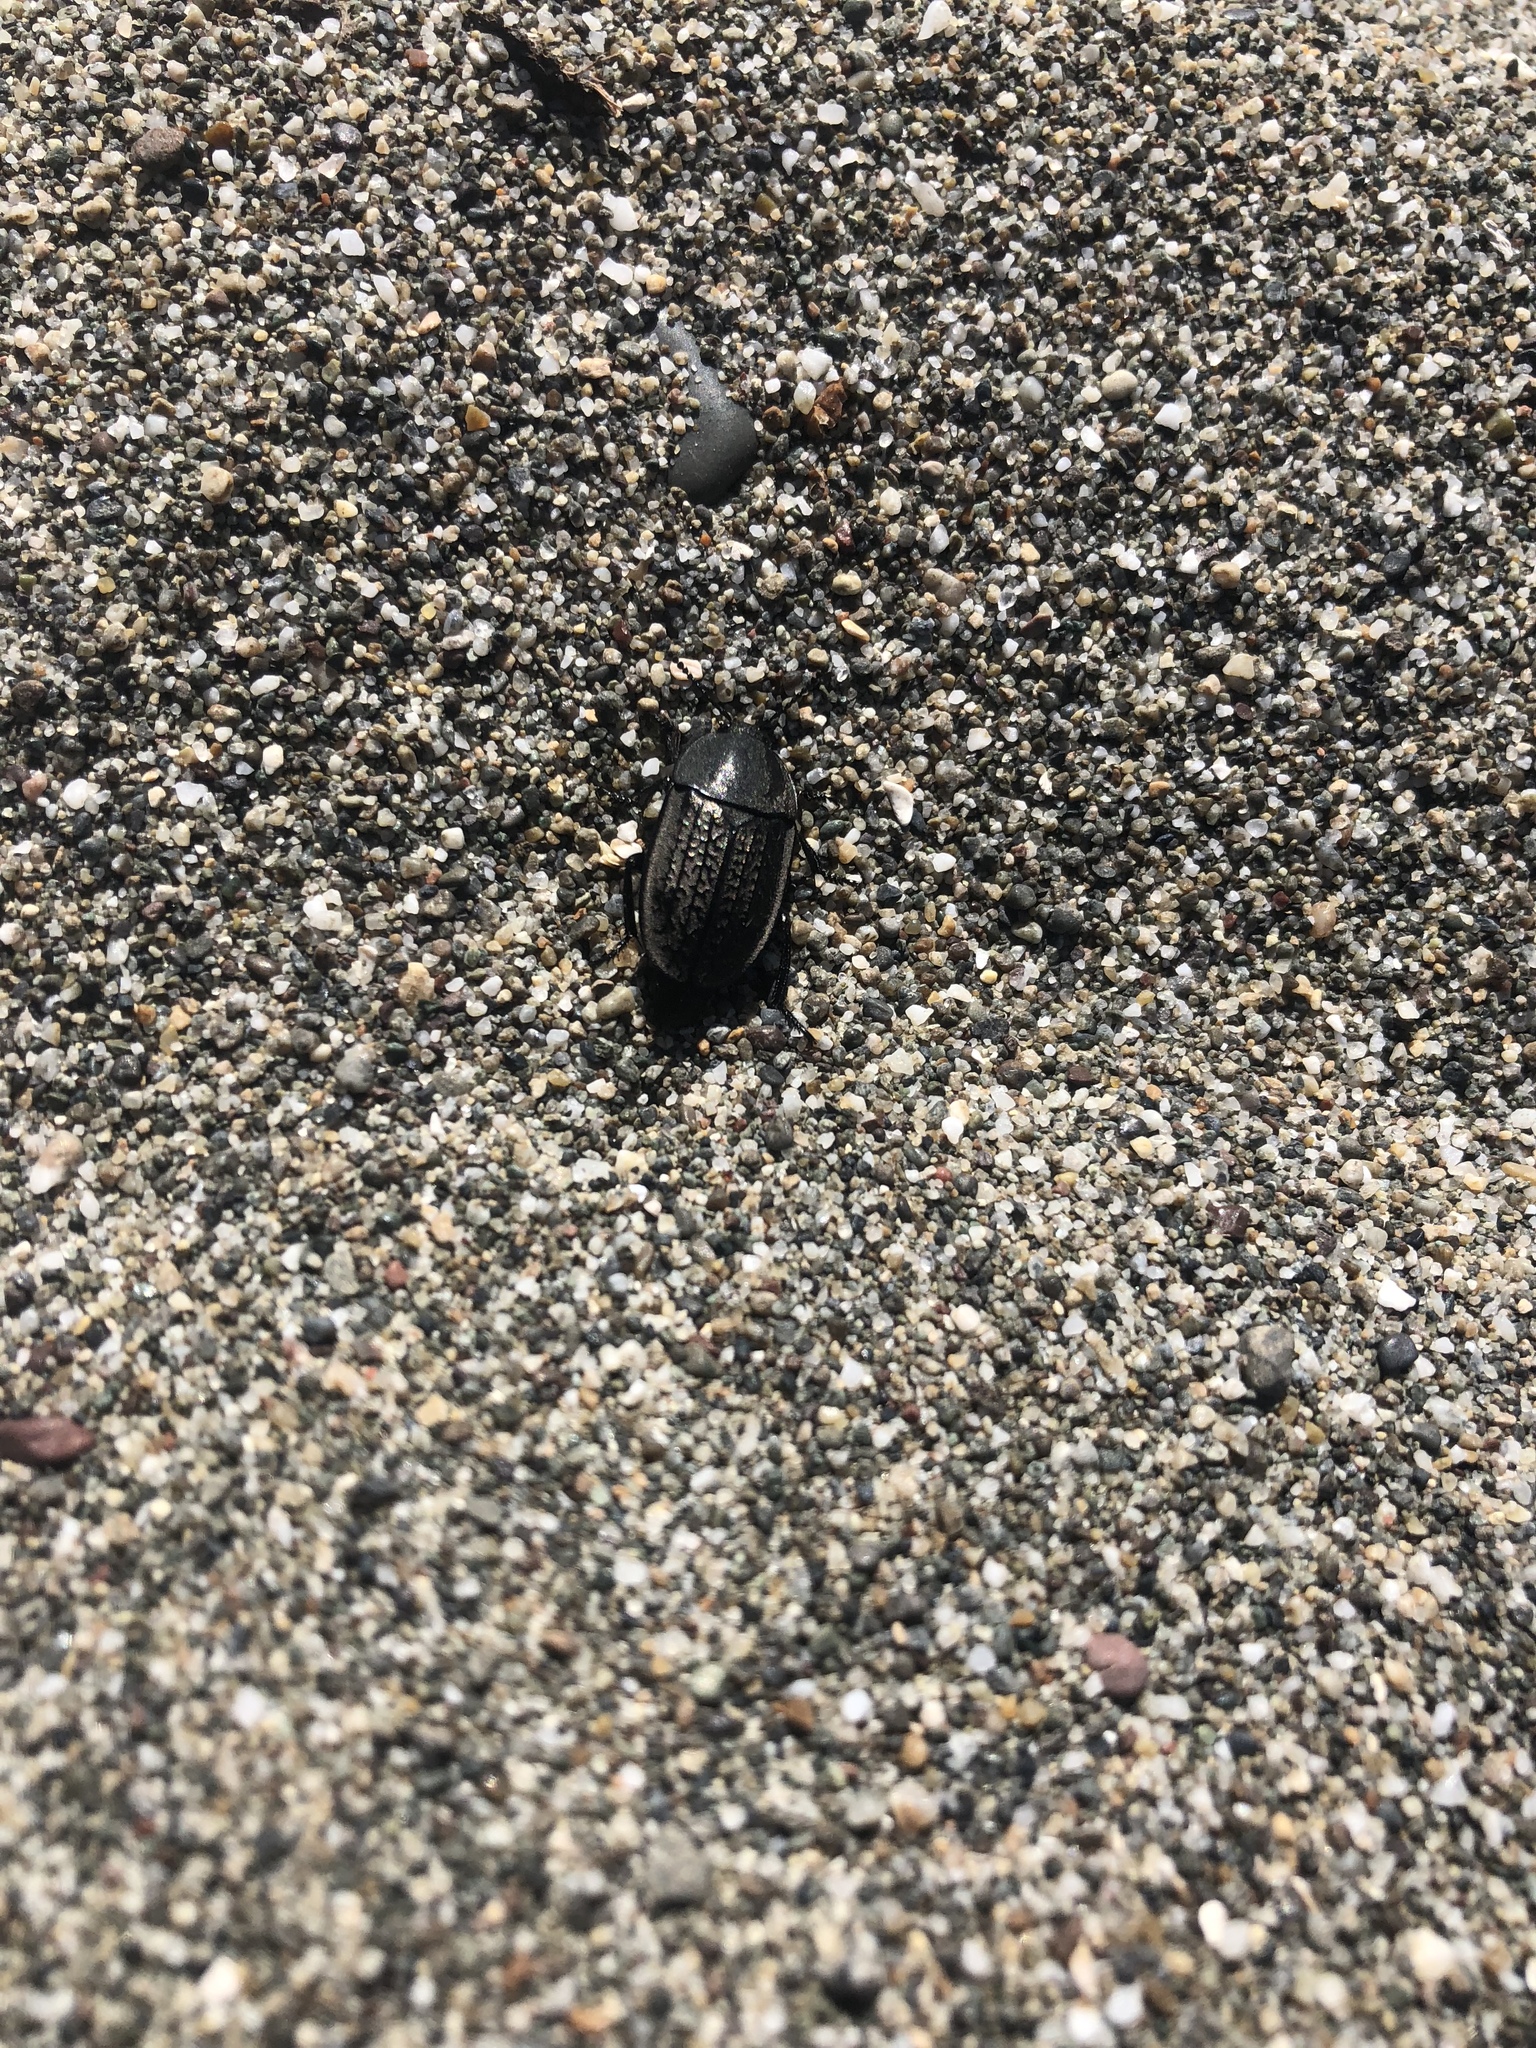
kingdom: Animalia
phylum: Arthropoda
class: Insecta
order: Coleoptera
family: Staphylinidae
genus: Heterosilpha
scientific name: Heterosilpha ramosa
